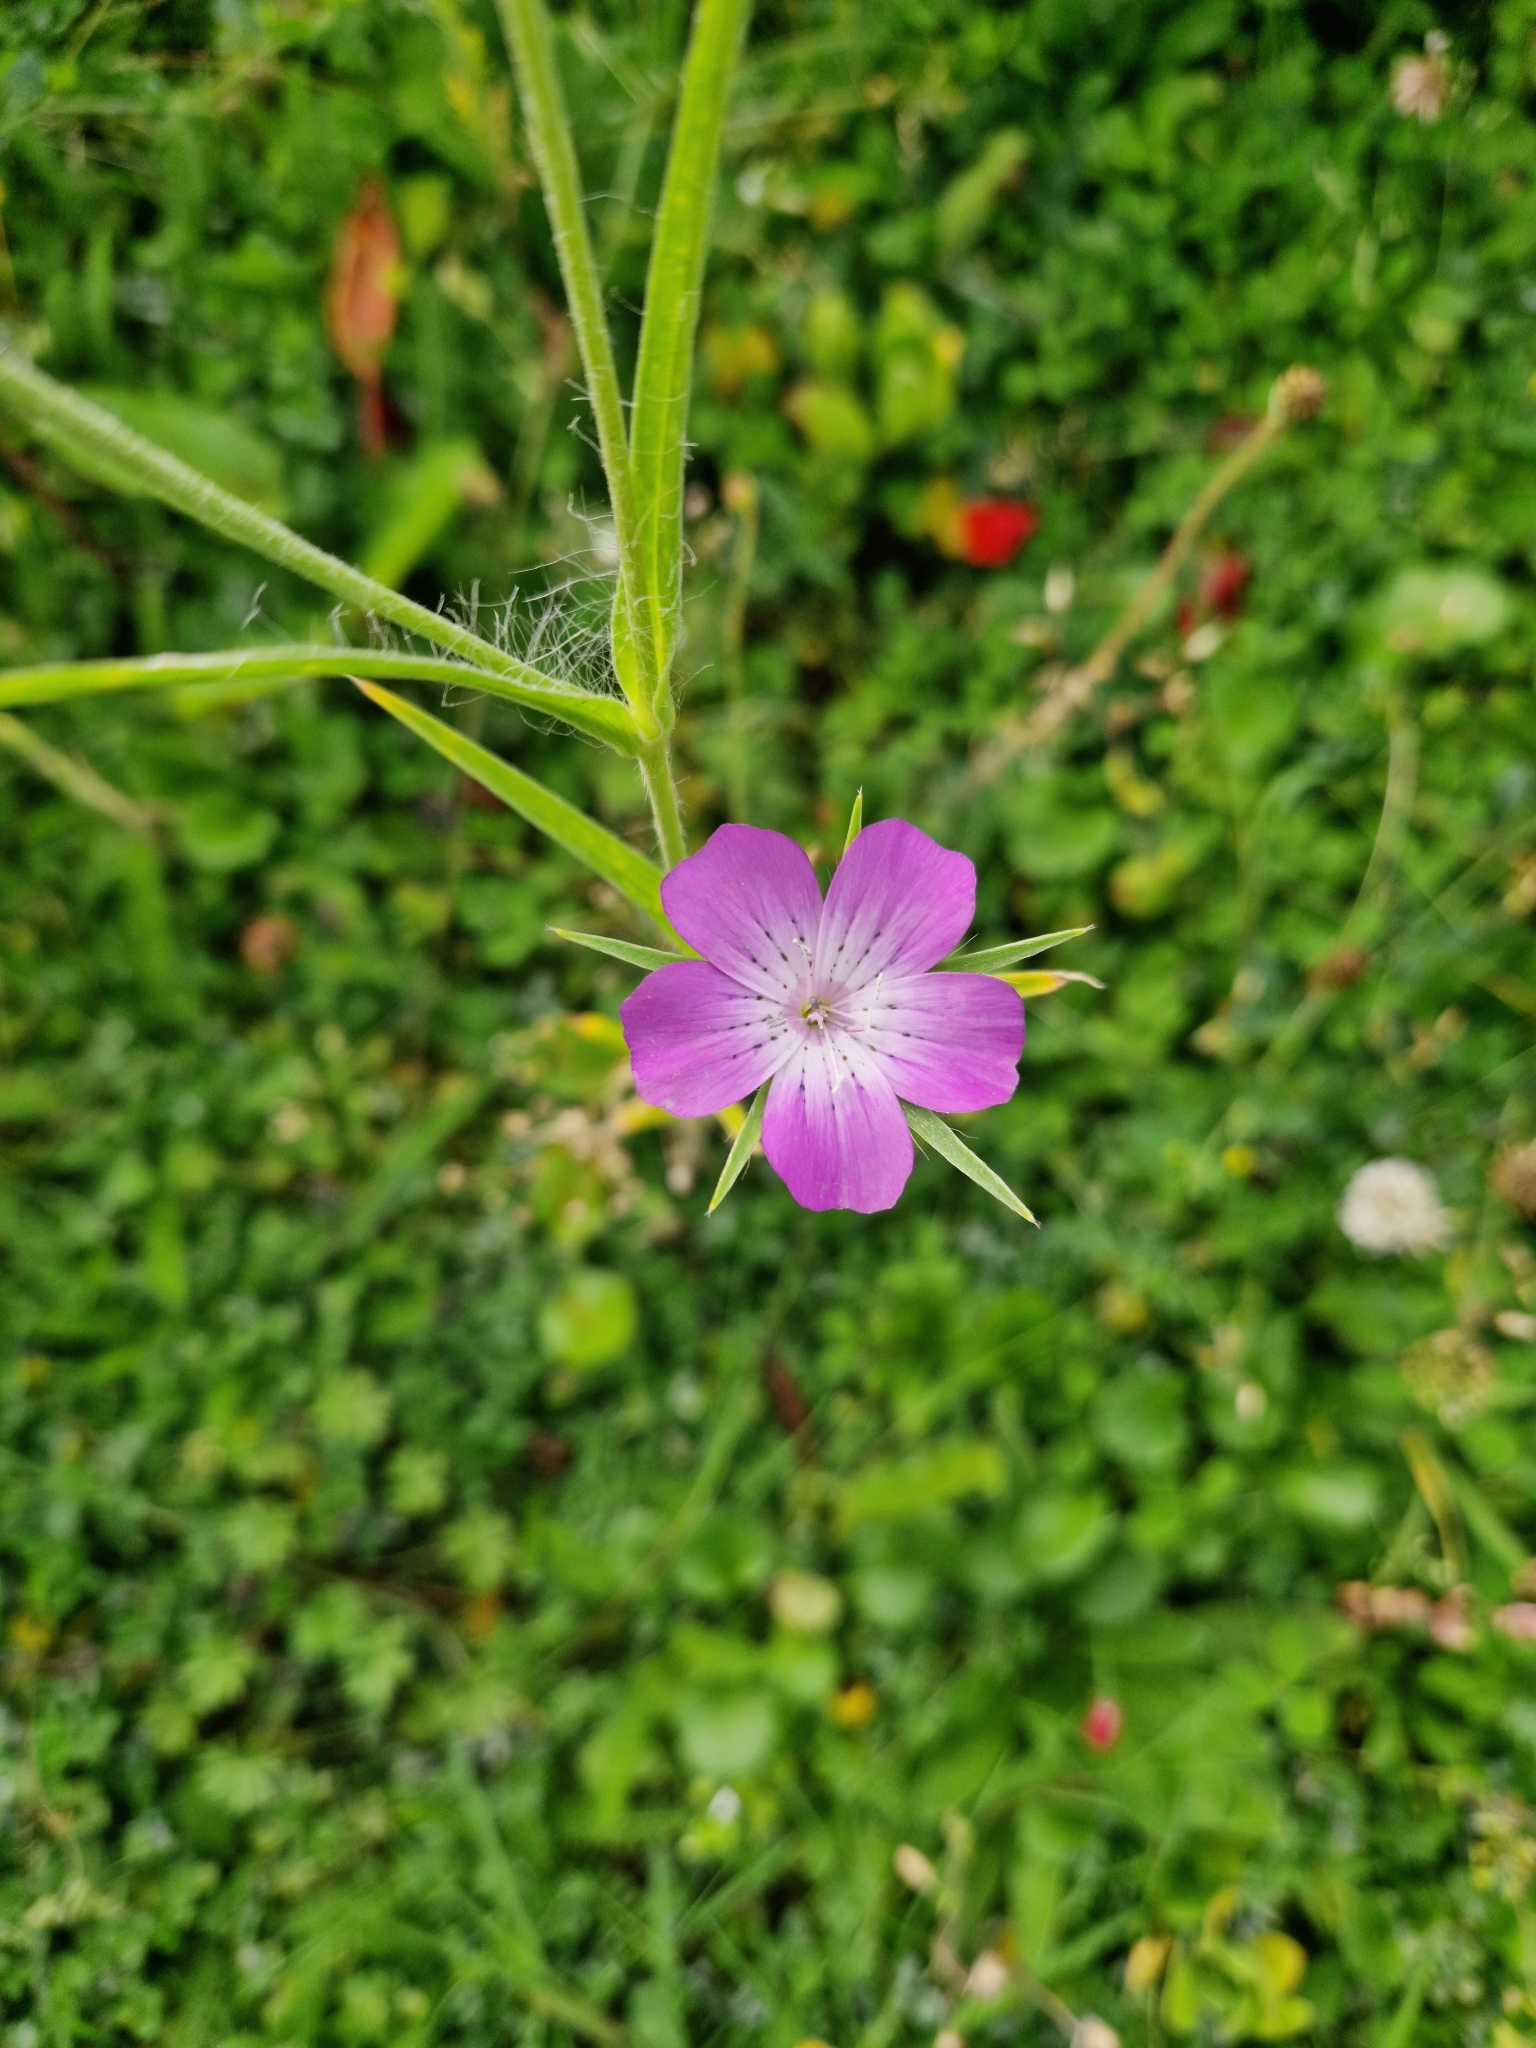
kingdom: Plantae
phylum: Tracheophyta
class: Magnoliopsida
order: Caryophyllales
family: Caryophyllaceae
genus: Agrostemma
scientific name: Agrostemma githago
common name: Common corncockle
